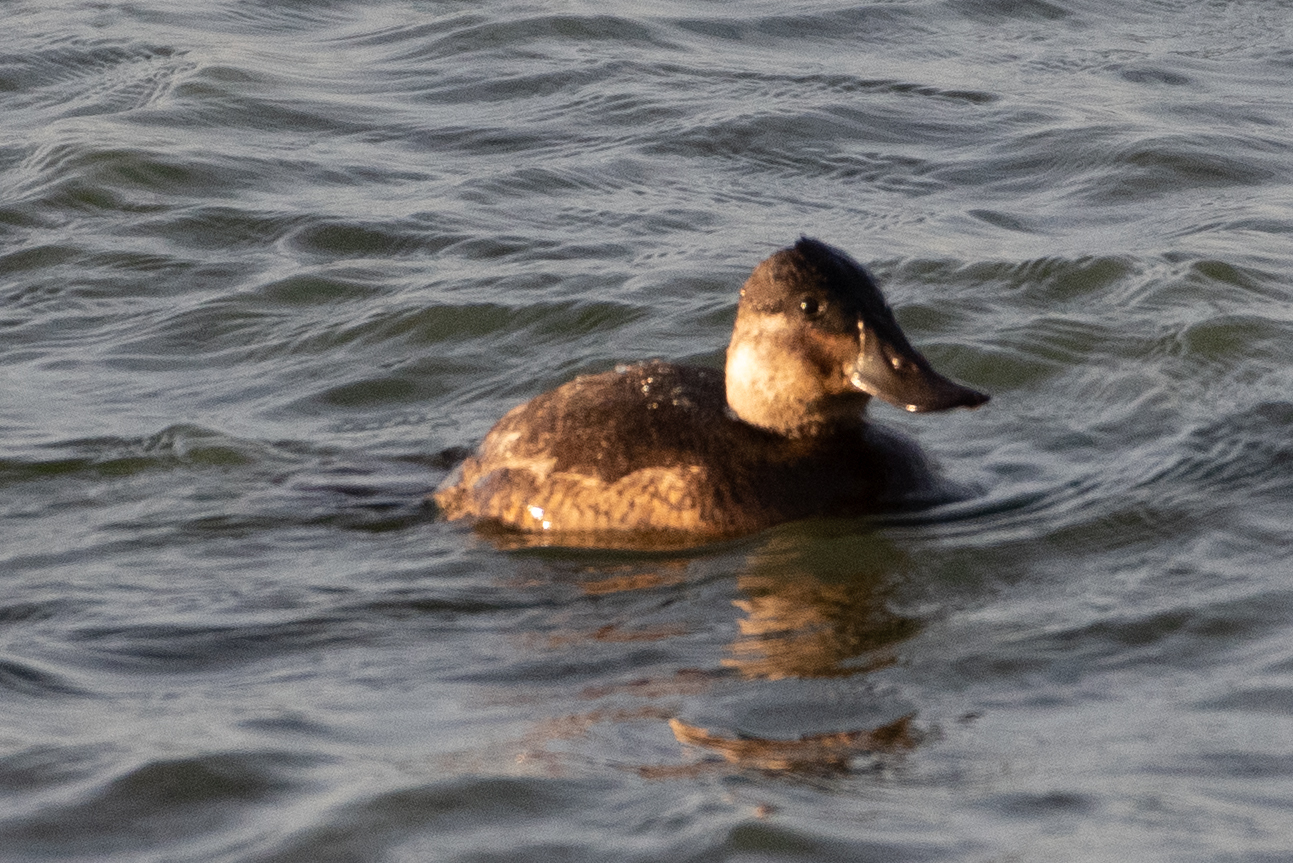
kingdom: Animalia
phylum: Chordata
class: Aves
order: Anseriformes
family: Anatidae
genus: Oxyura
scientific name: Oxyura jamaicensis
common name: Ruddy duck
